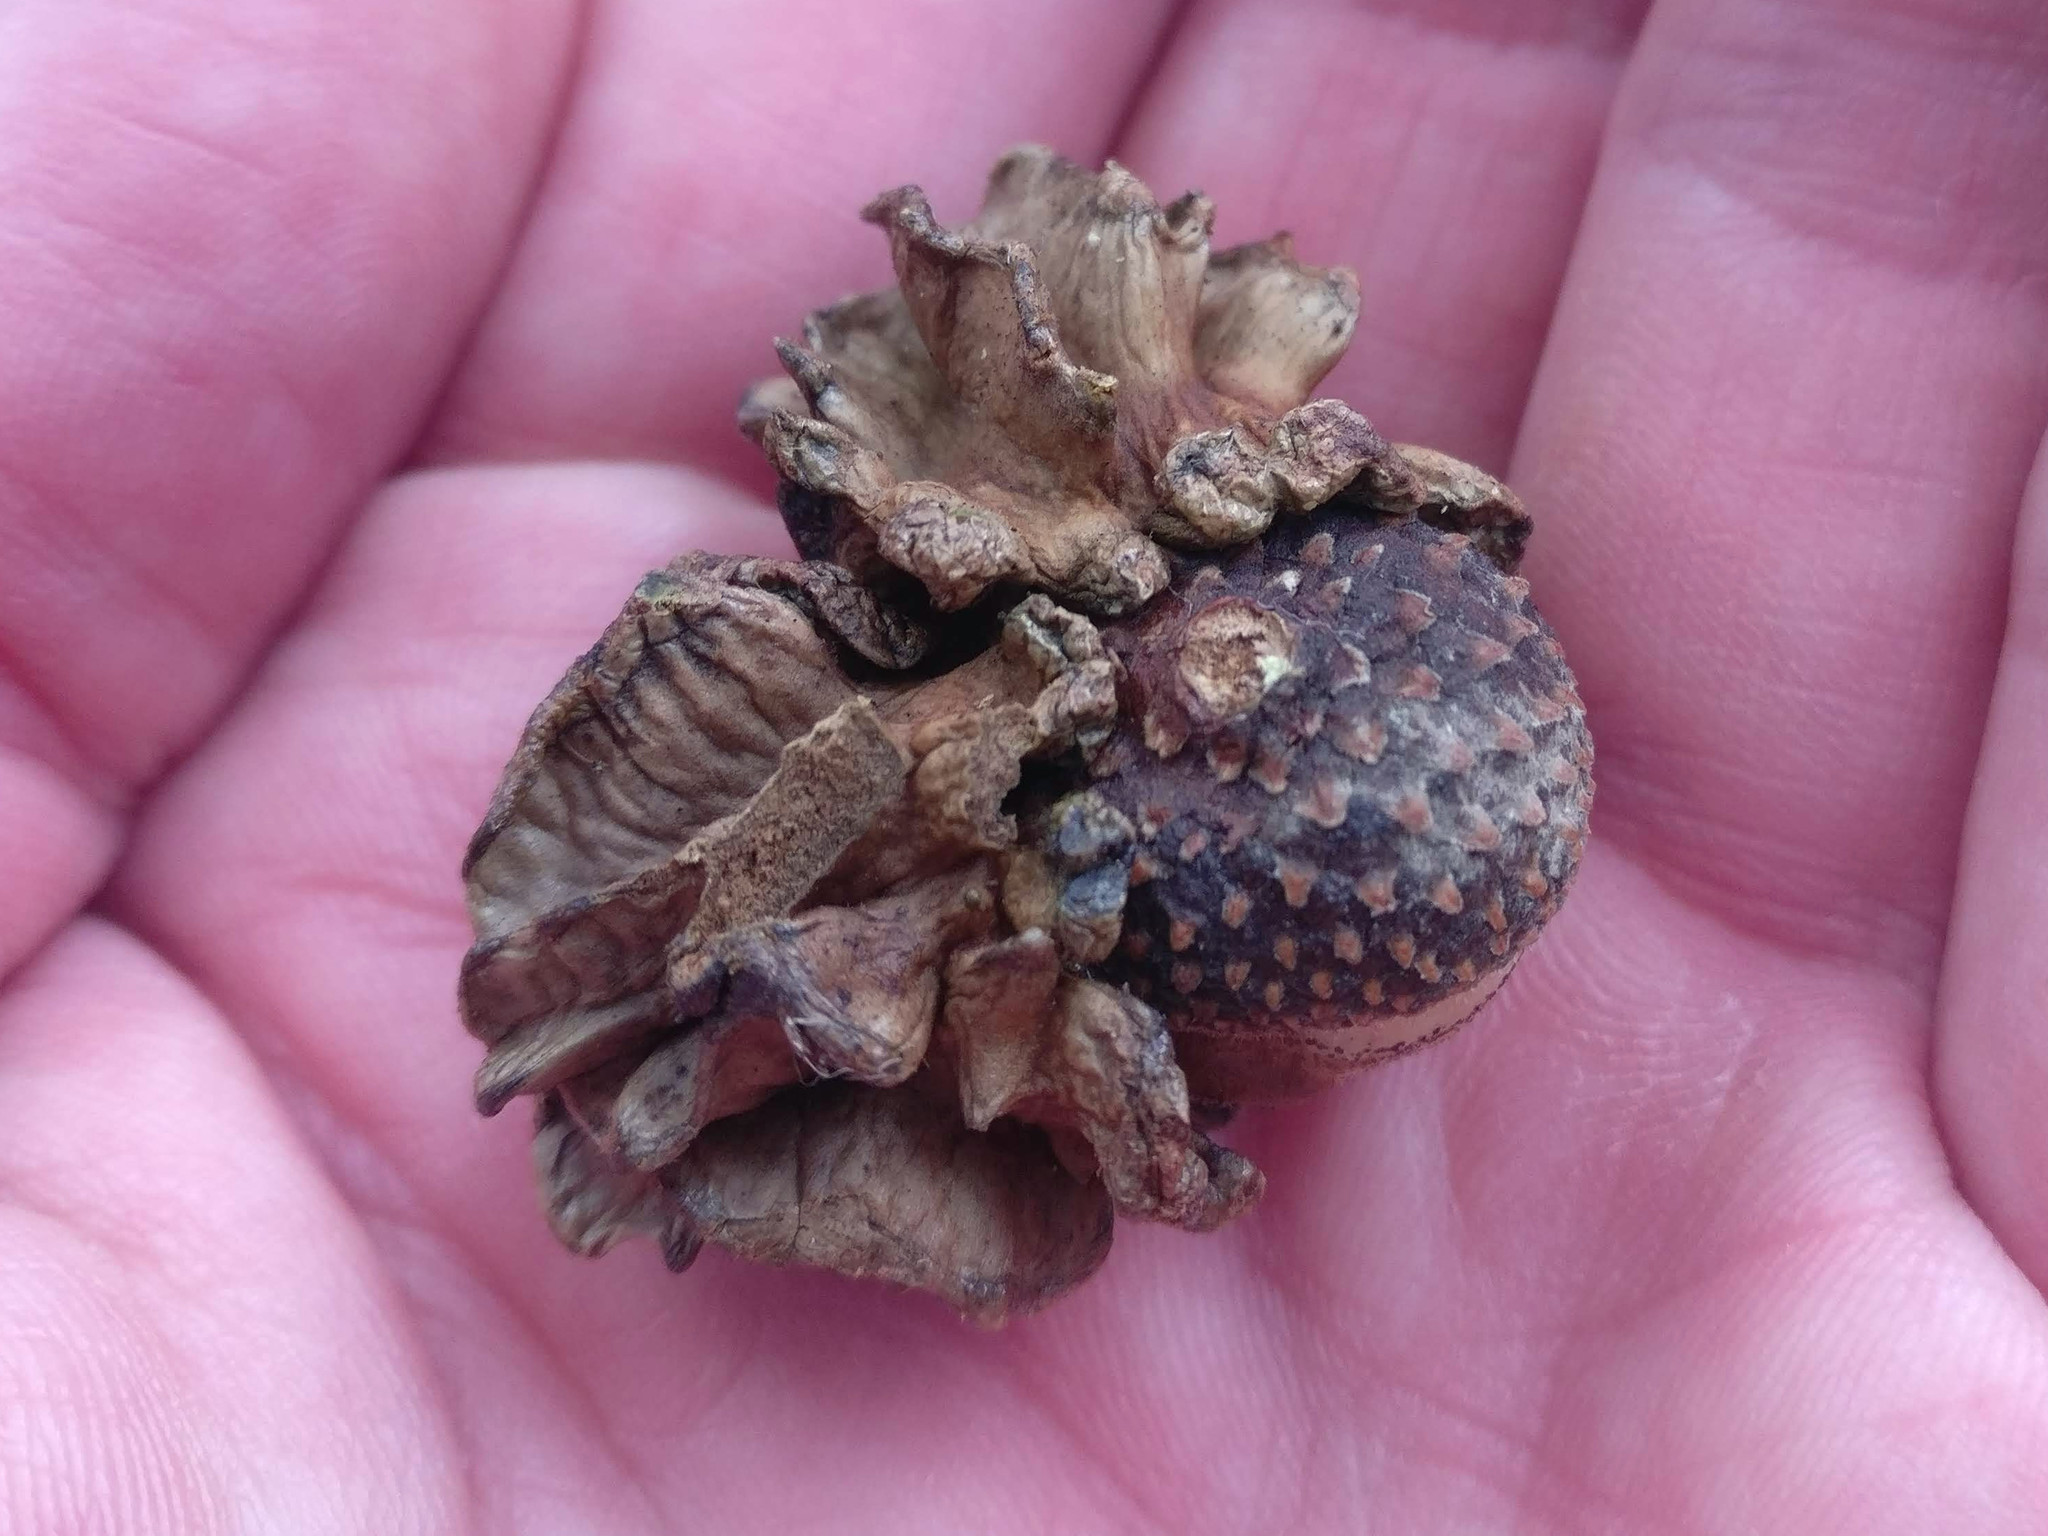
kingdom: Animalia
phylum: Arthropoda
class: Insecta
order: Hymenoptera
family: Cynipidae
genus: Andricus
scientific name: Andricus quercuscalicis
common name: Knopper gall
